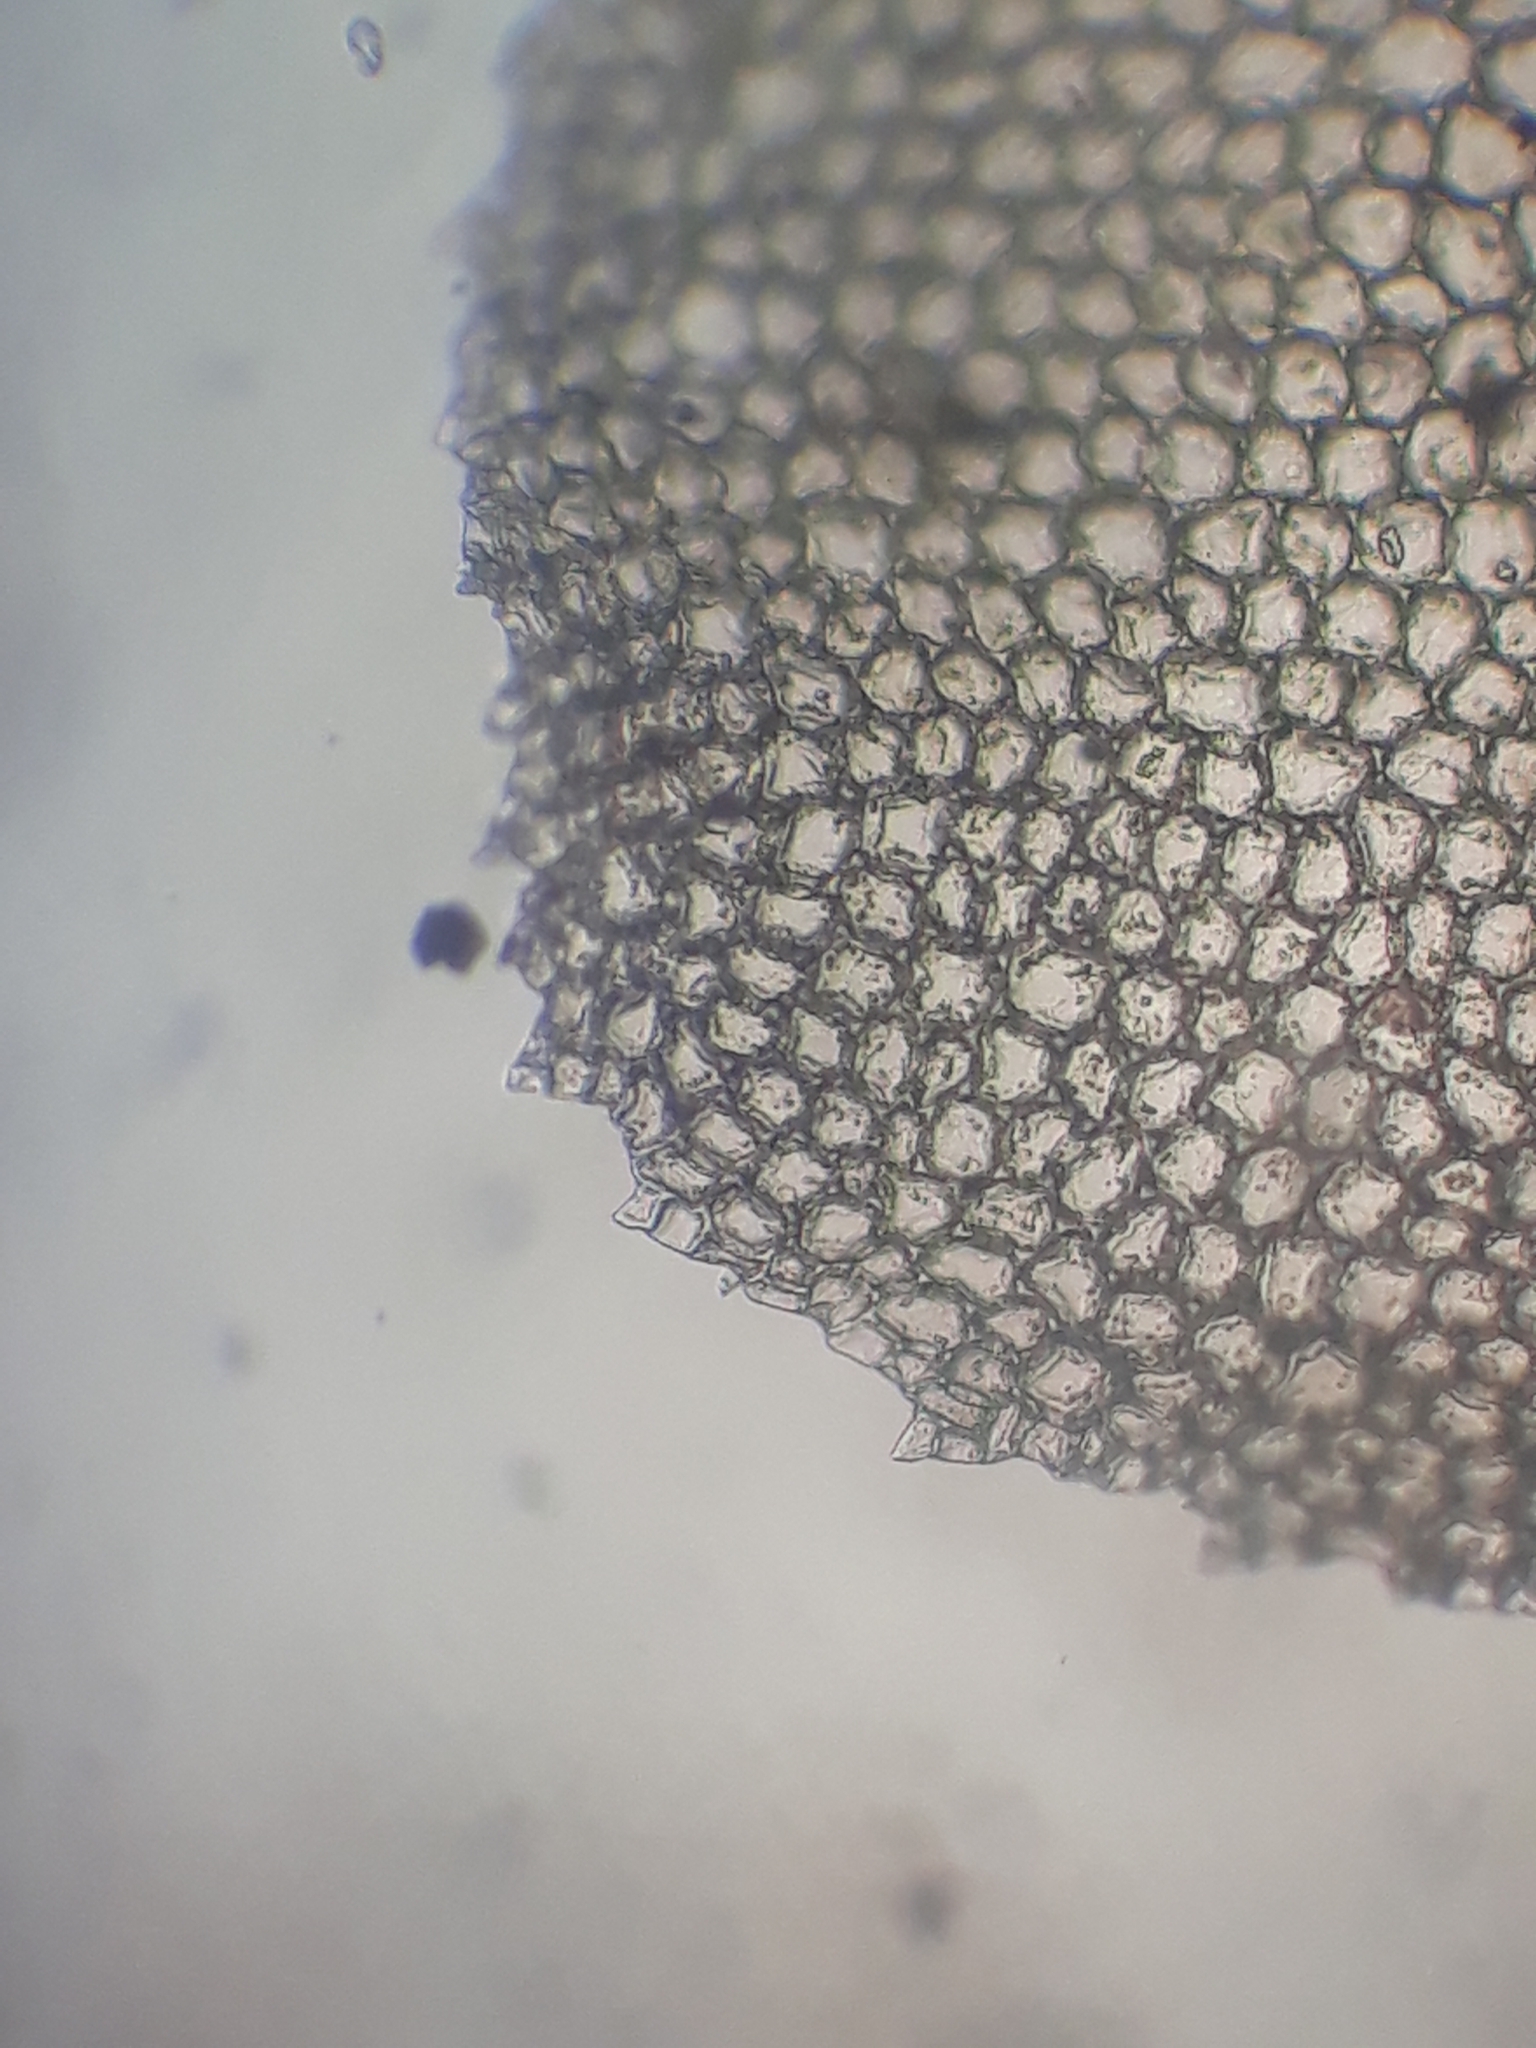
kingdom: Plantae
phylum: Bryophyta
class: Bryopsida
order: Hookeriales
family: Daltoniaceae
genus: Achrophyllum
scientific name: Achrophyllum dentatum
